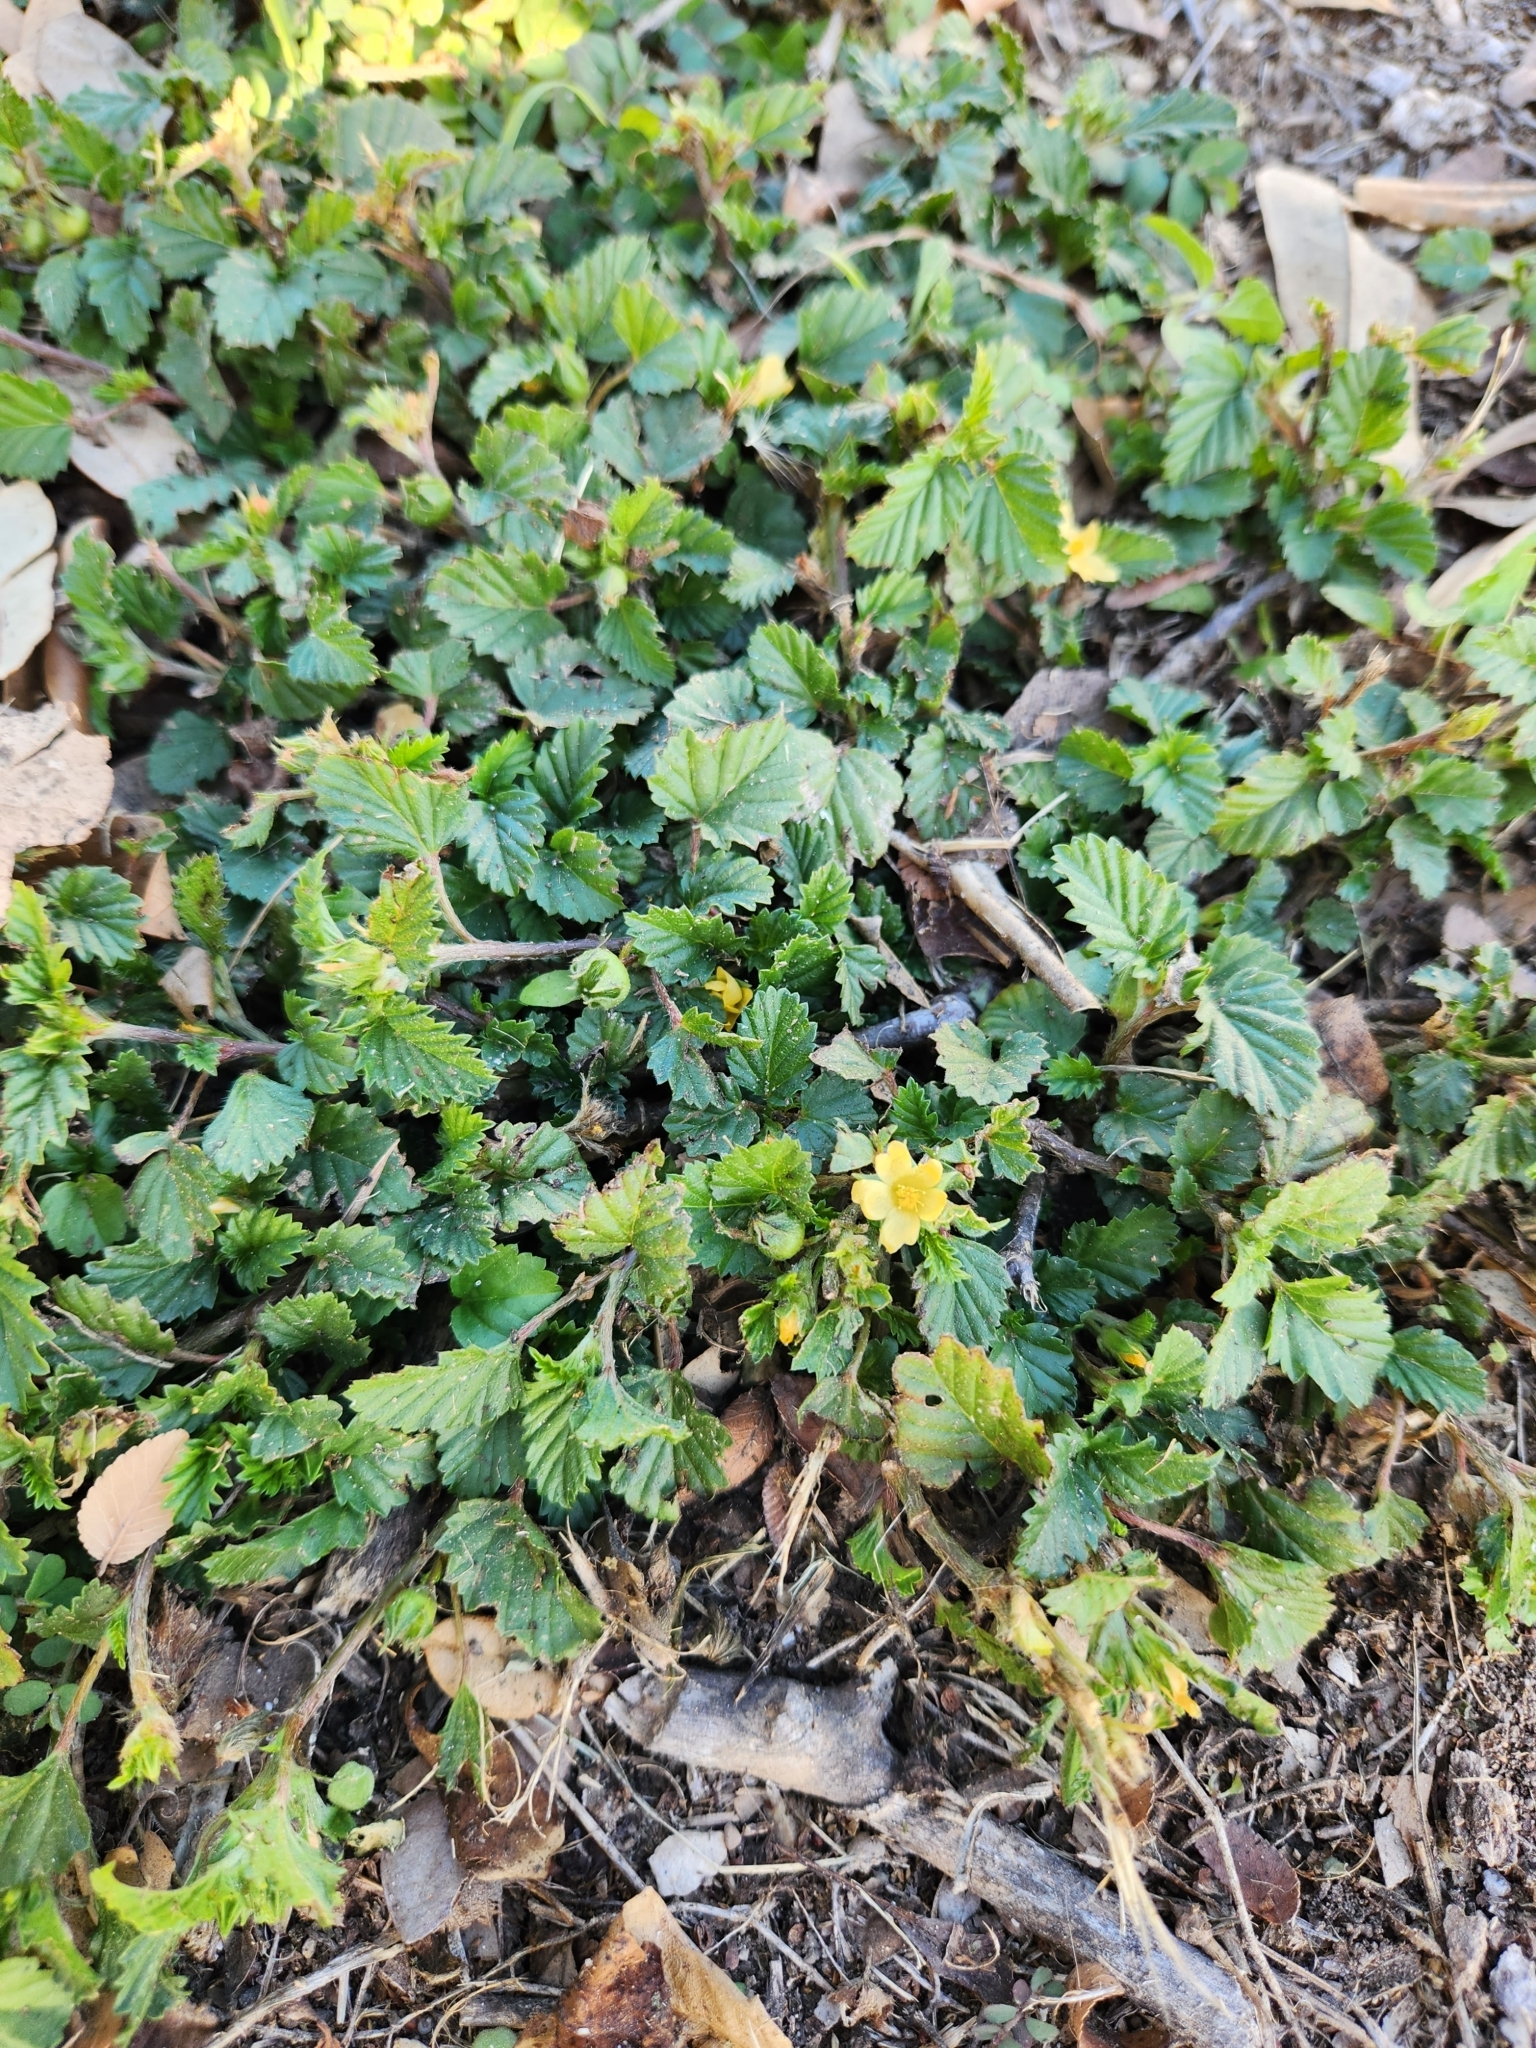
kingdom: Plantae
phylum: Tracheophyta
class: Magnoliopsida
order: Malvales
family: Malvaceae
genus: Malvastrum
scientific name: Malvastrum coromandelianum
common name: Threelobe false mallow
